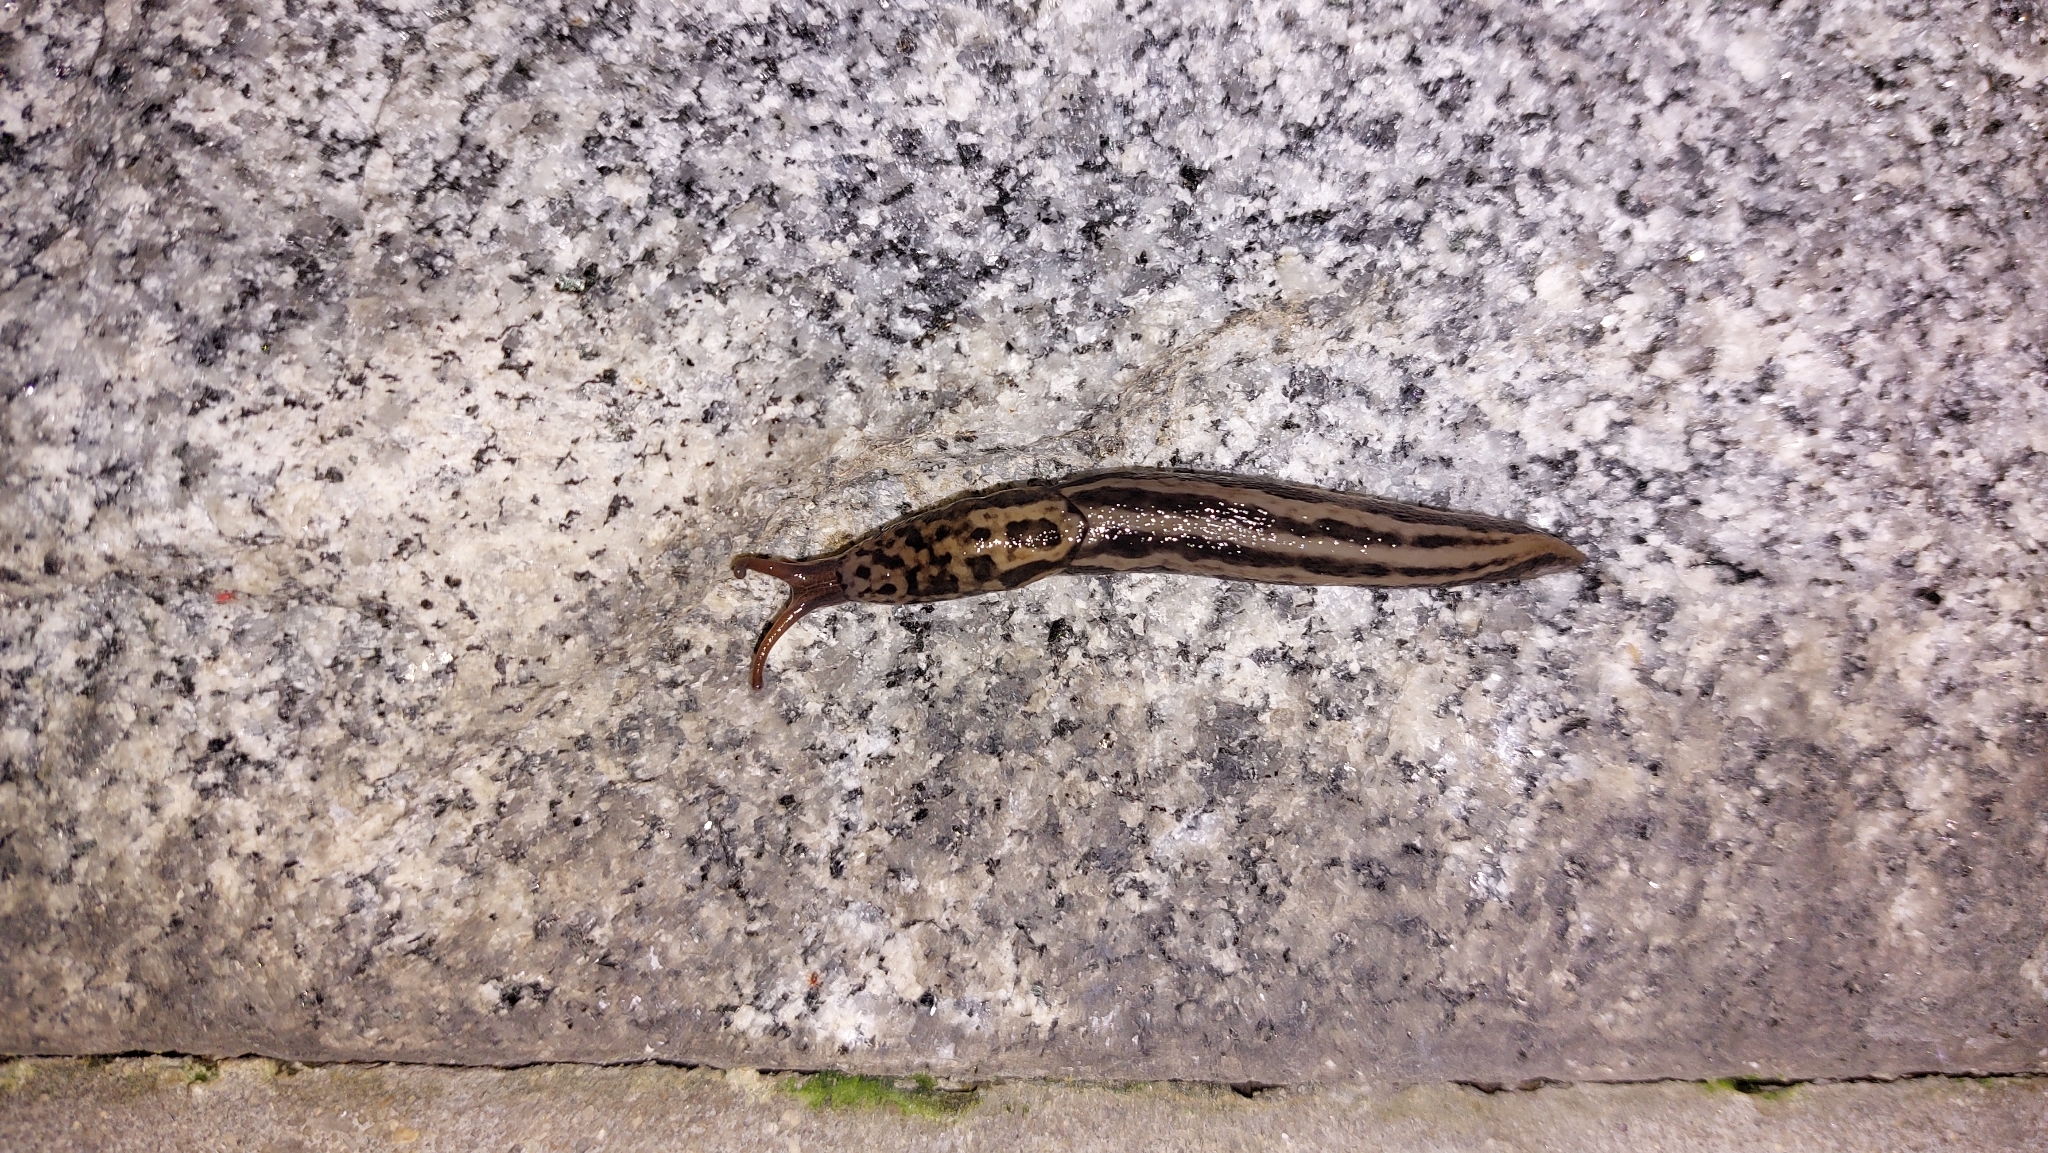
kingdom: Animalia
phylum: Mollusca
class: Gastropoda
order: Stylommatophora
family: Limacidae
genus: Limax
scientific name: Limax maximus
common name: Great grey slug
